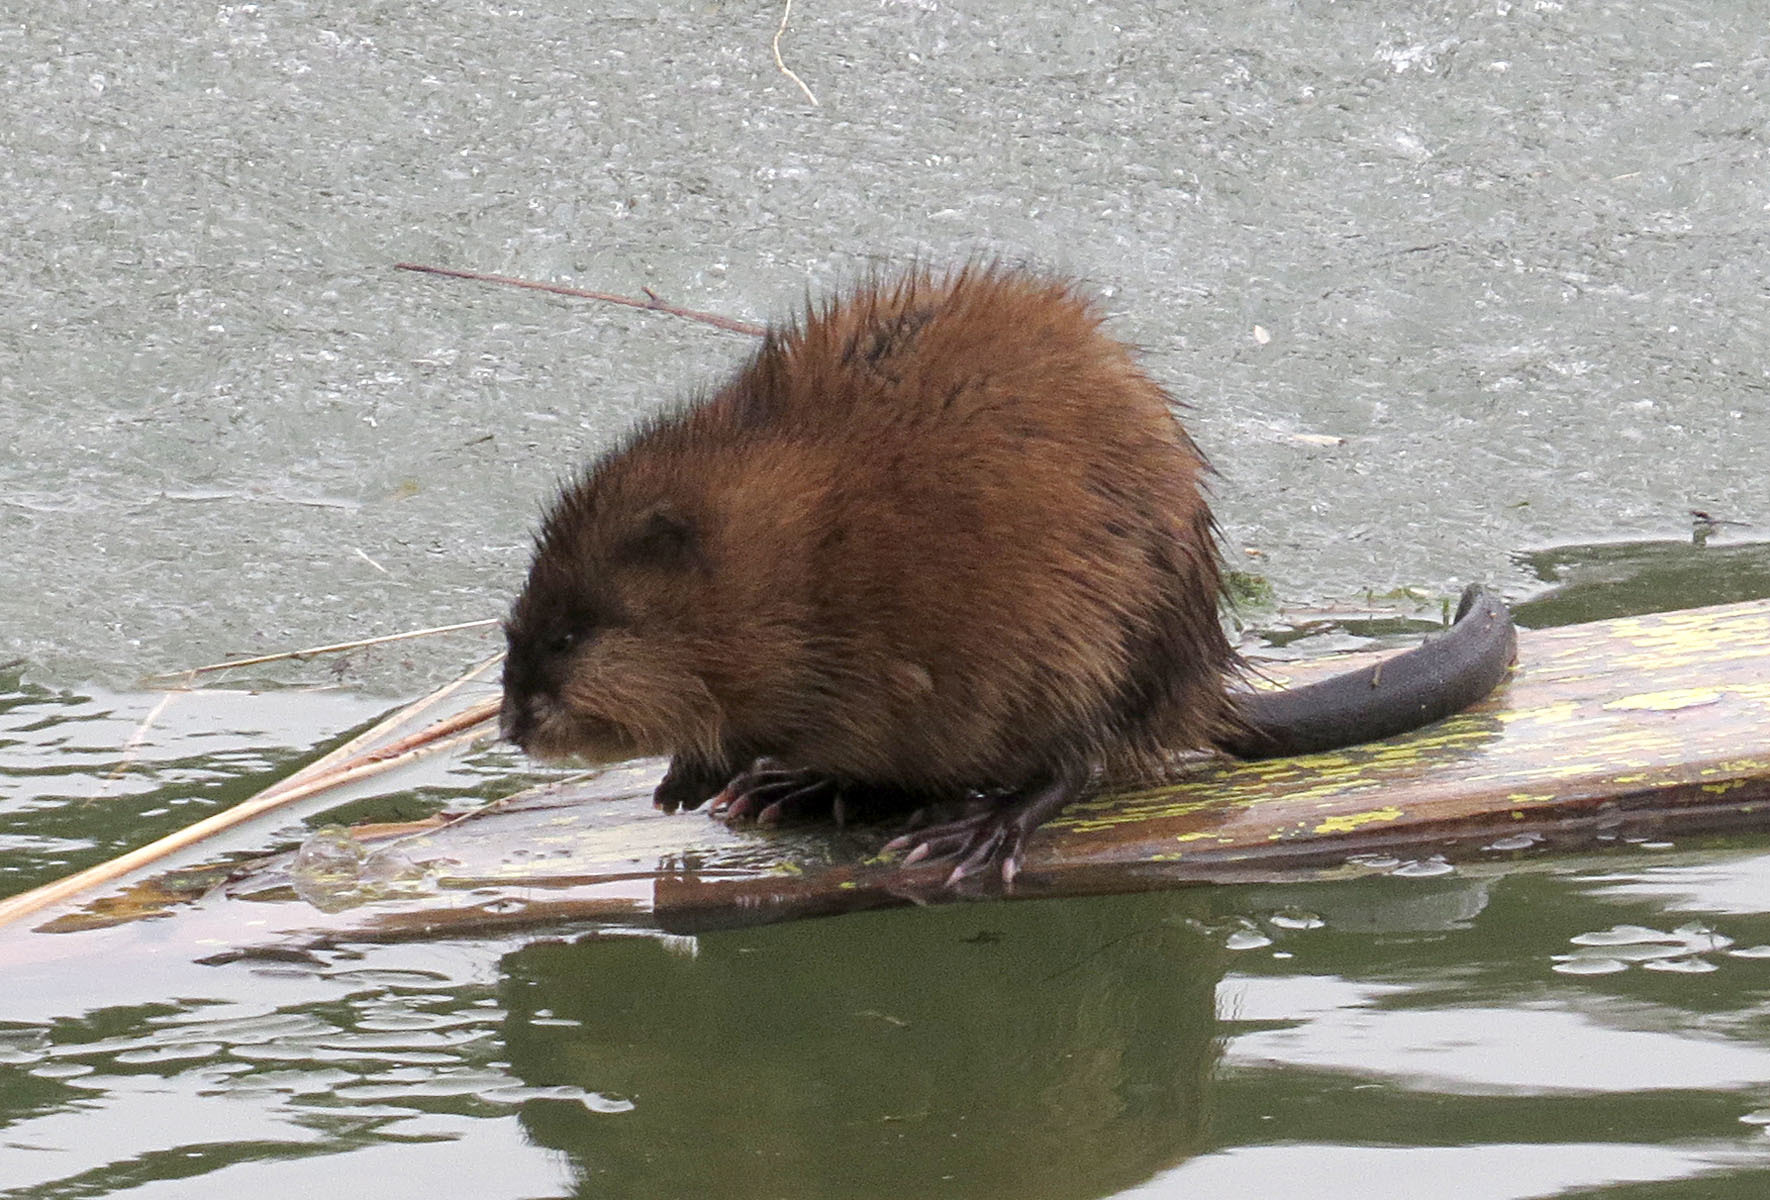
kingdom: Animalia
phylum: Chordata
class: Mammalia
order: Rodentia
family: Cricetidae
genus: Ondatra
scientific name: Ondatra zibethicus
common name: Muskrat
